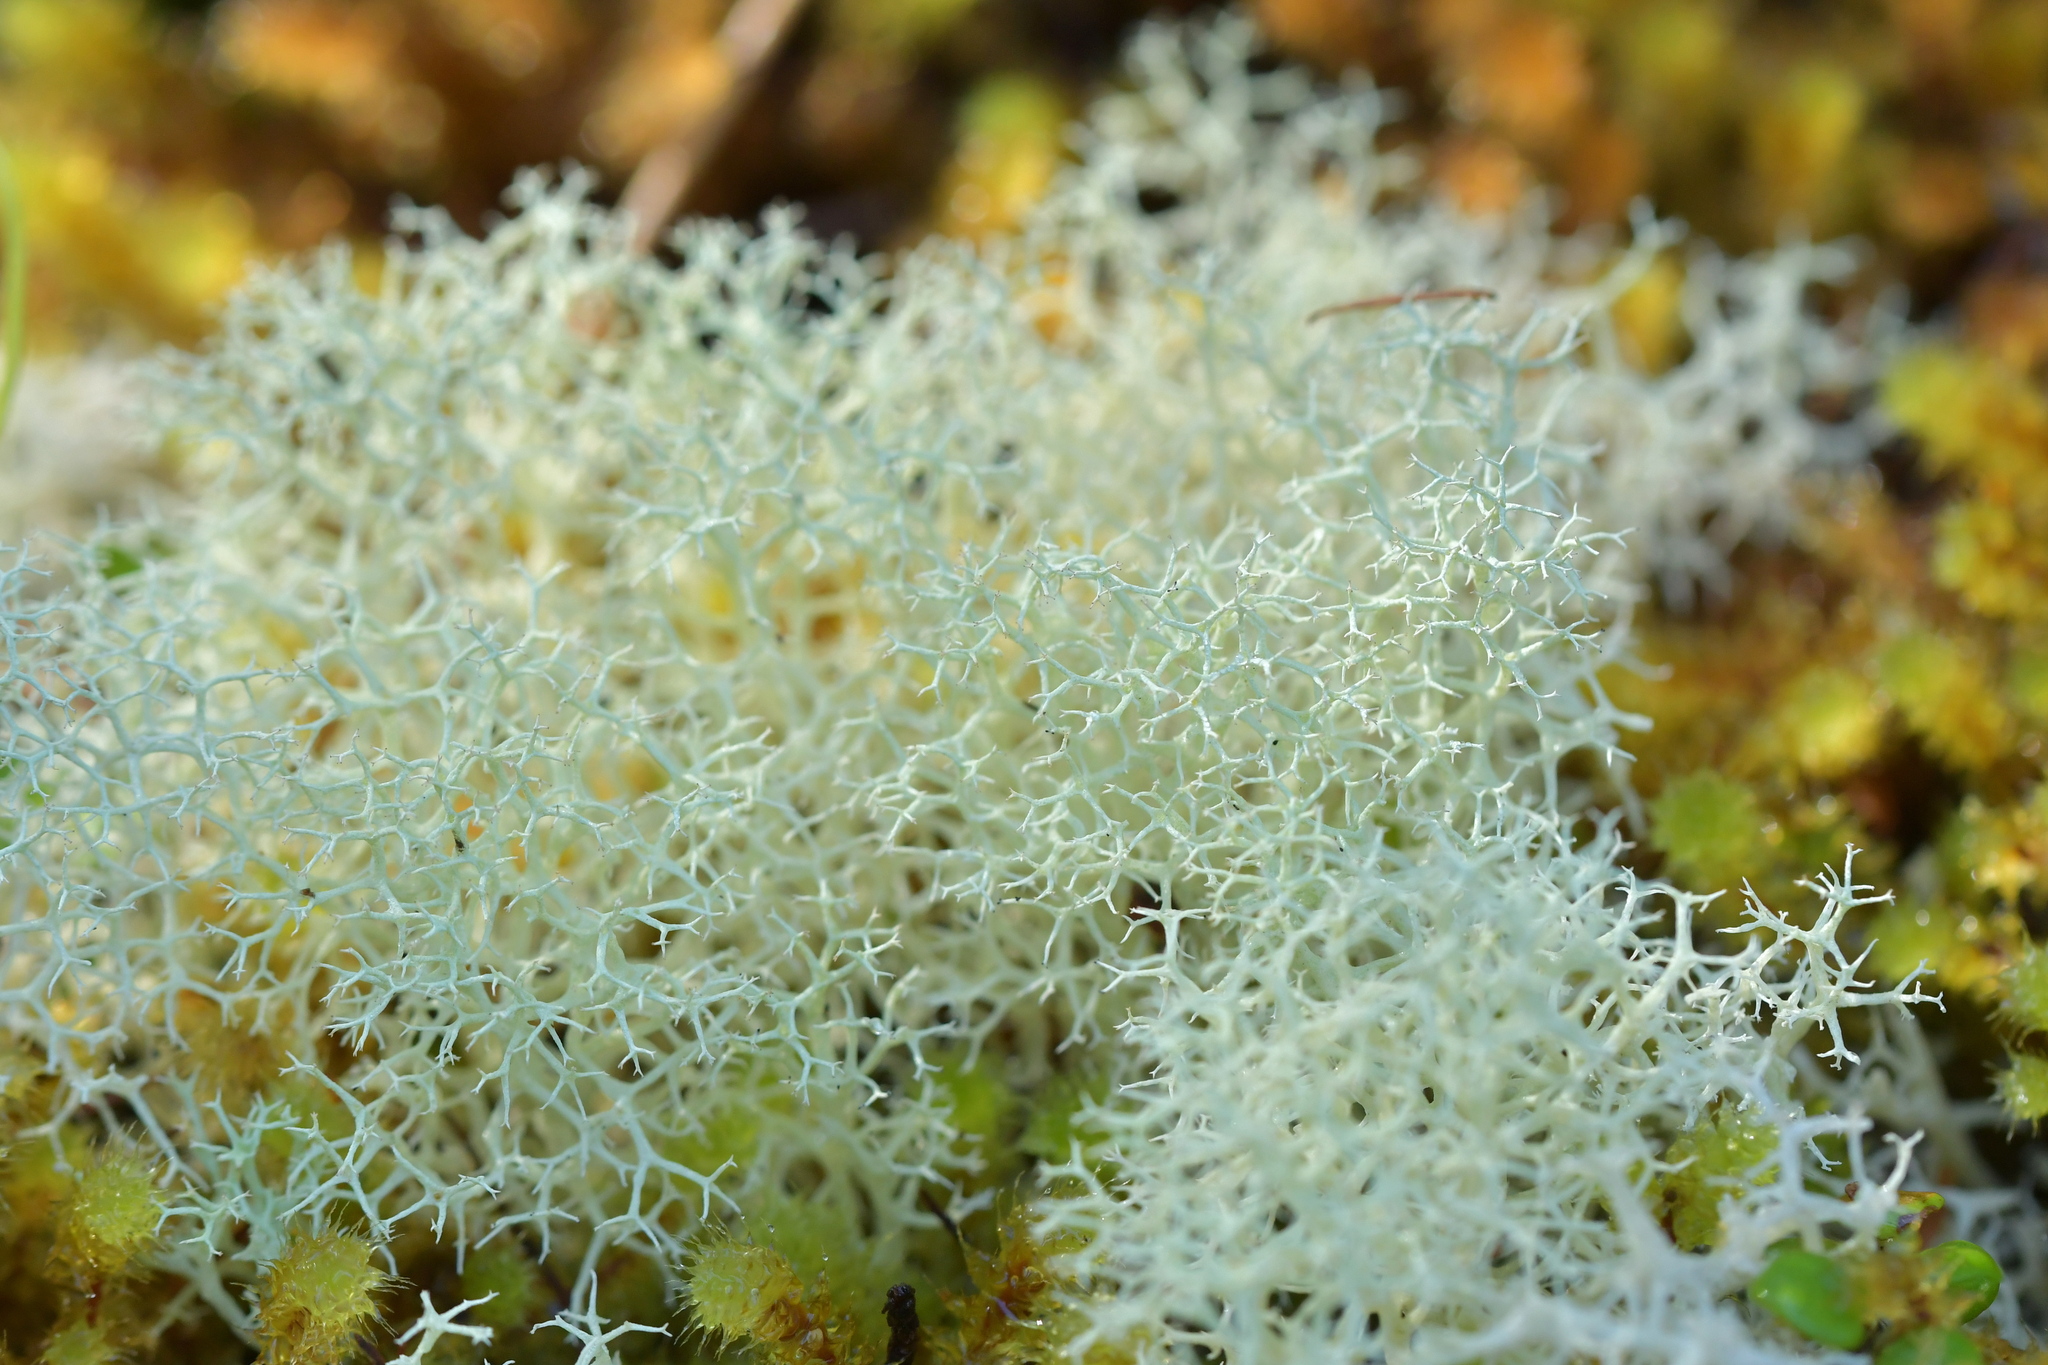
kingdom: Fungi
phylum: Ascomycota
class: Lecanoromycetes
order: Lecanorales
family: Cladoniaceae
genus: Cladonia
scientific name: Cladonia confusa
